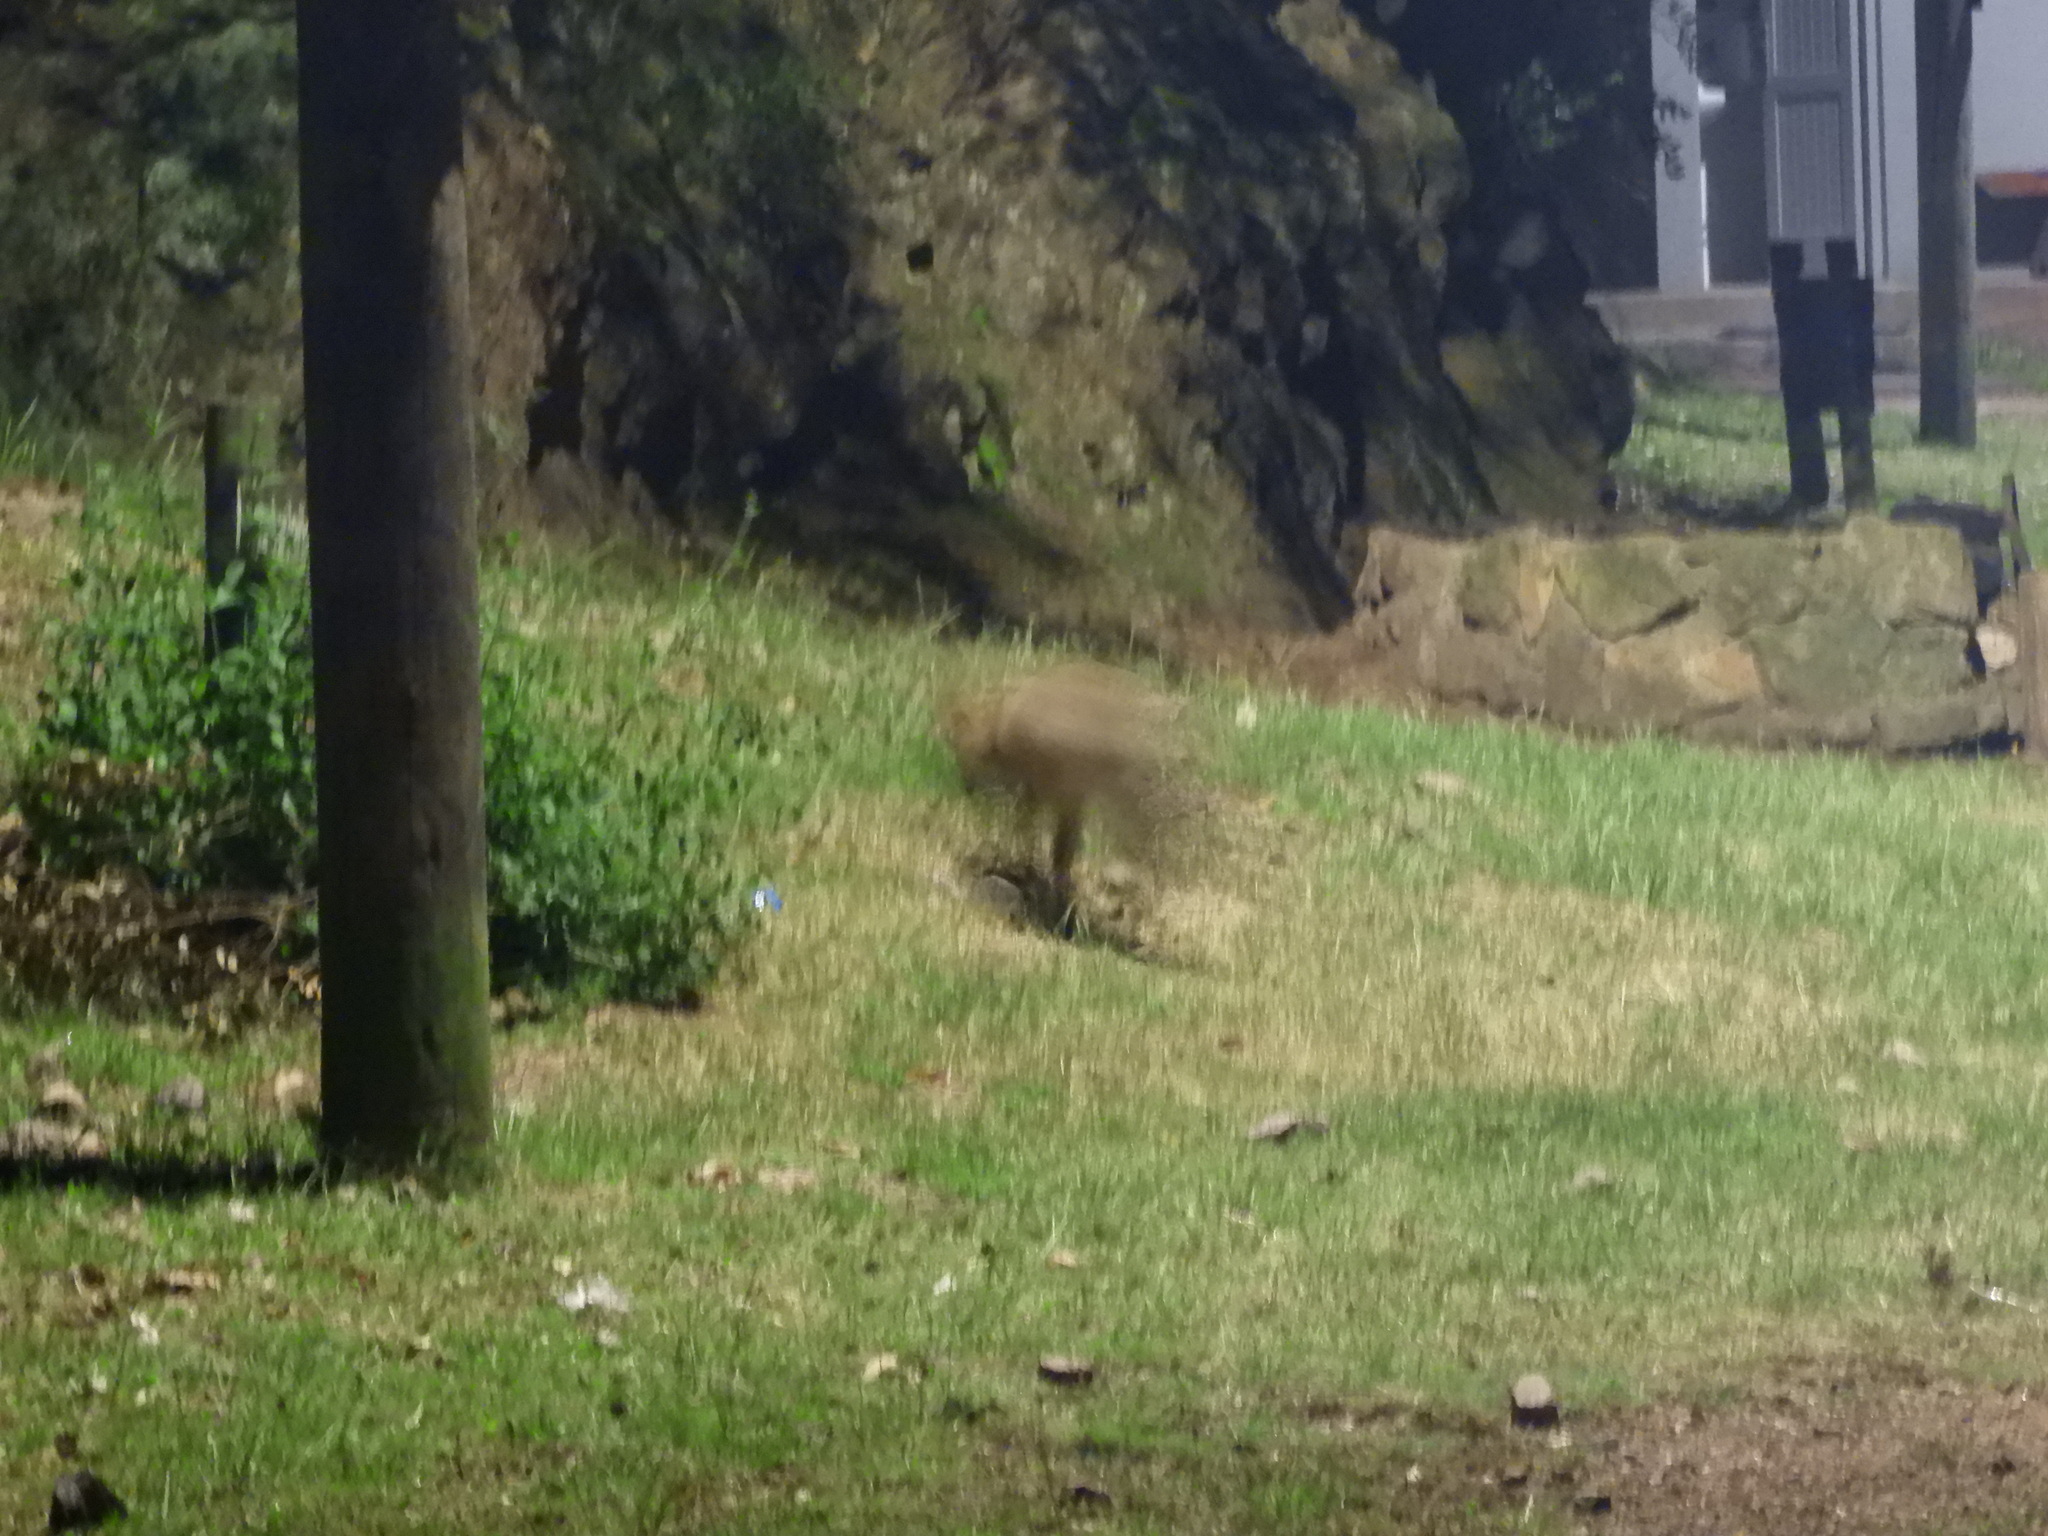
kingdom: Animalia
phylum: Chordata
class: Mammalia
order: Carnivora
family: Canidae
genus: Cerdocyon
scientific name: Cerdocyon thous
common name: Crab-eating fox
